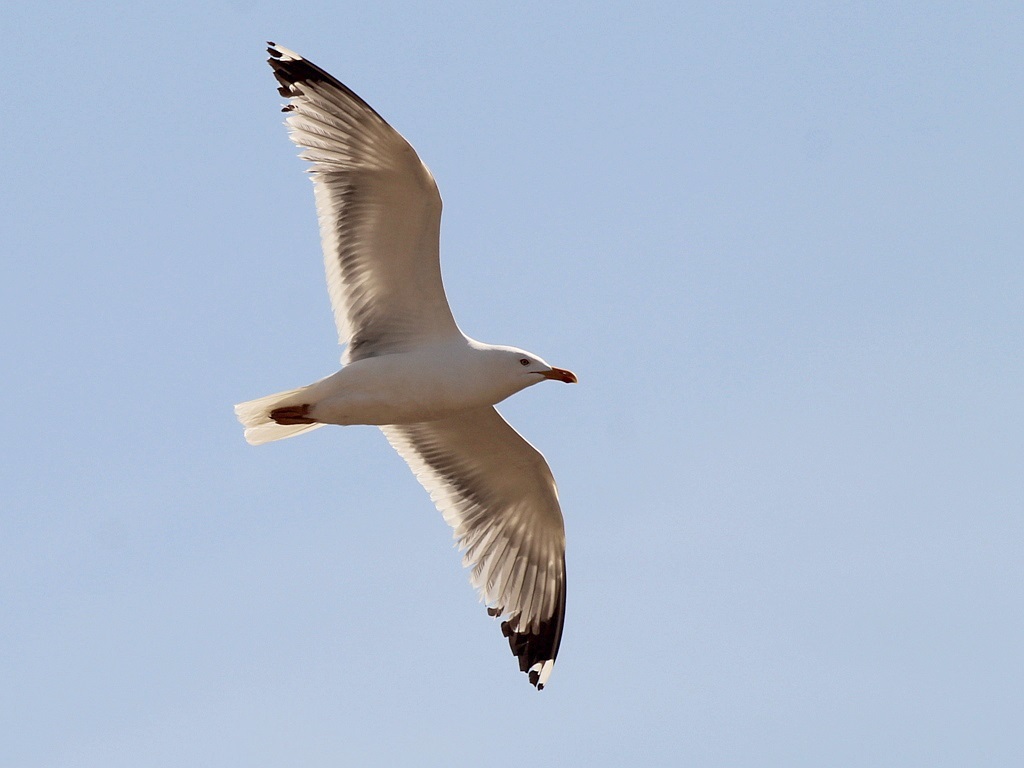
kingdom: Animalia
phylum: Chordata
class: Aves
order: Charadriiformes
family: Laridae
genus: Larus
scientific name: Larus fuscus
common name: Lesser black-backed gull
